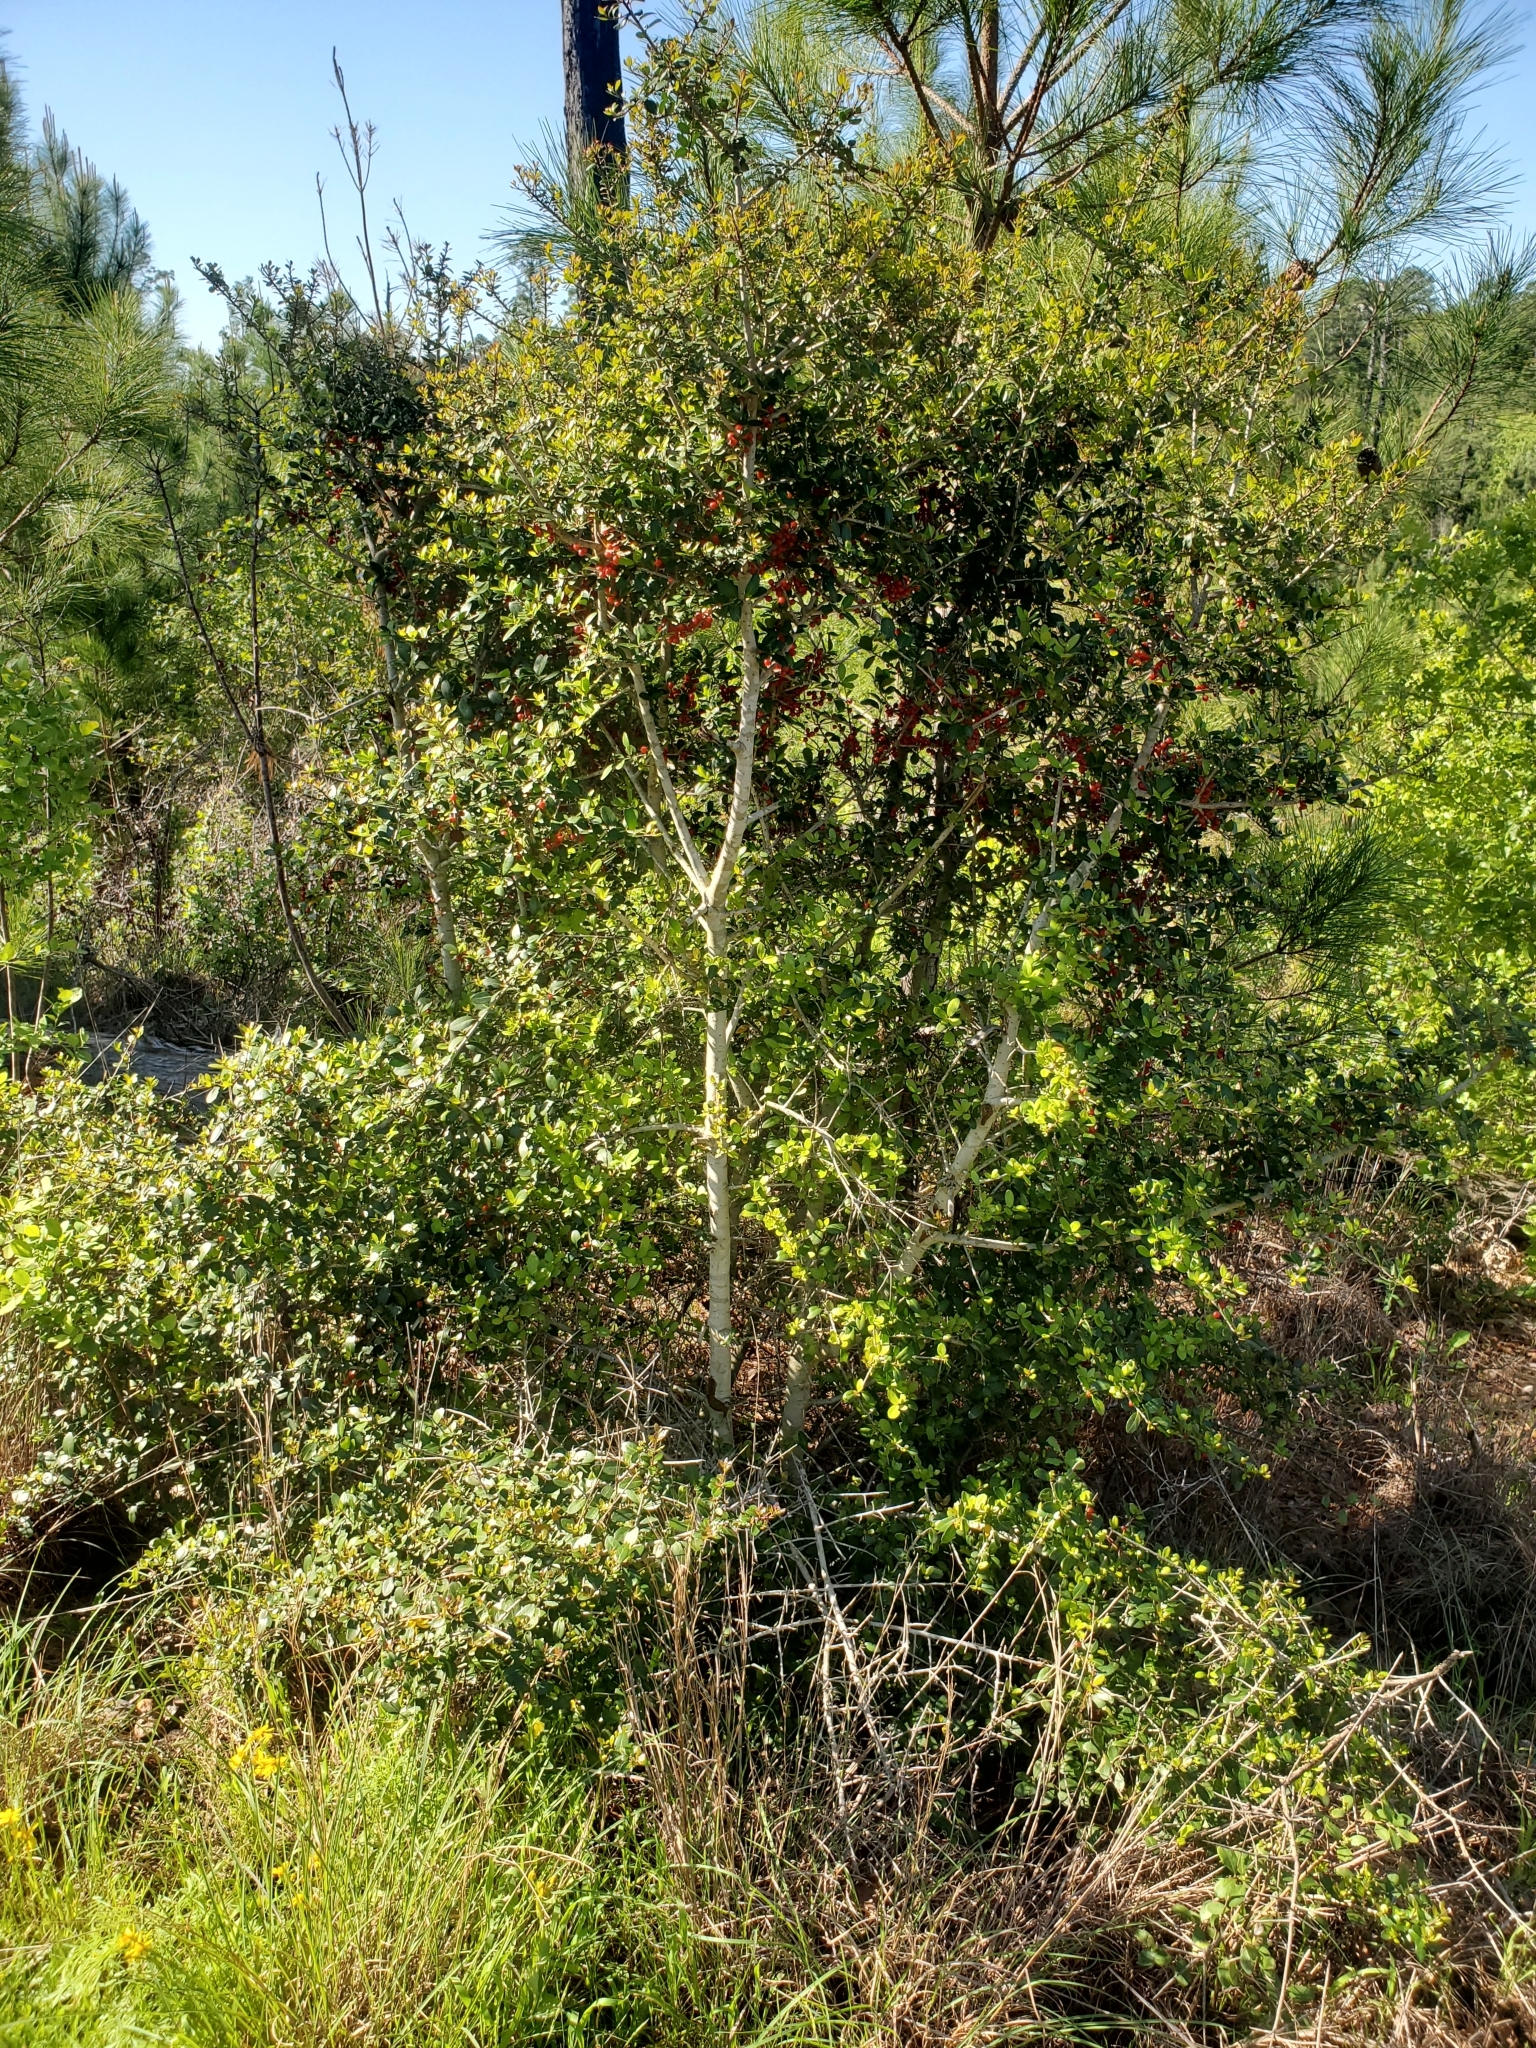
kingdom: Plantae
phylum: Tracheophyta
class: Magnoliopsida
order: Aquifoliales
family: Aquifoliaceae
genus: Ilex
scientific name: Ilex vomitoria
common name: Yaupon holly
